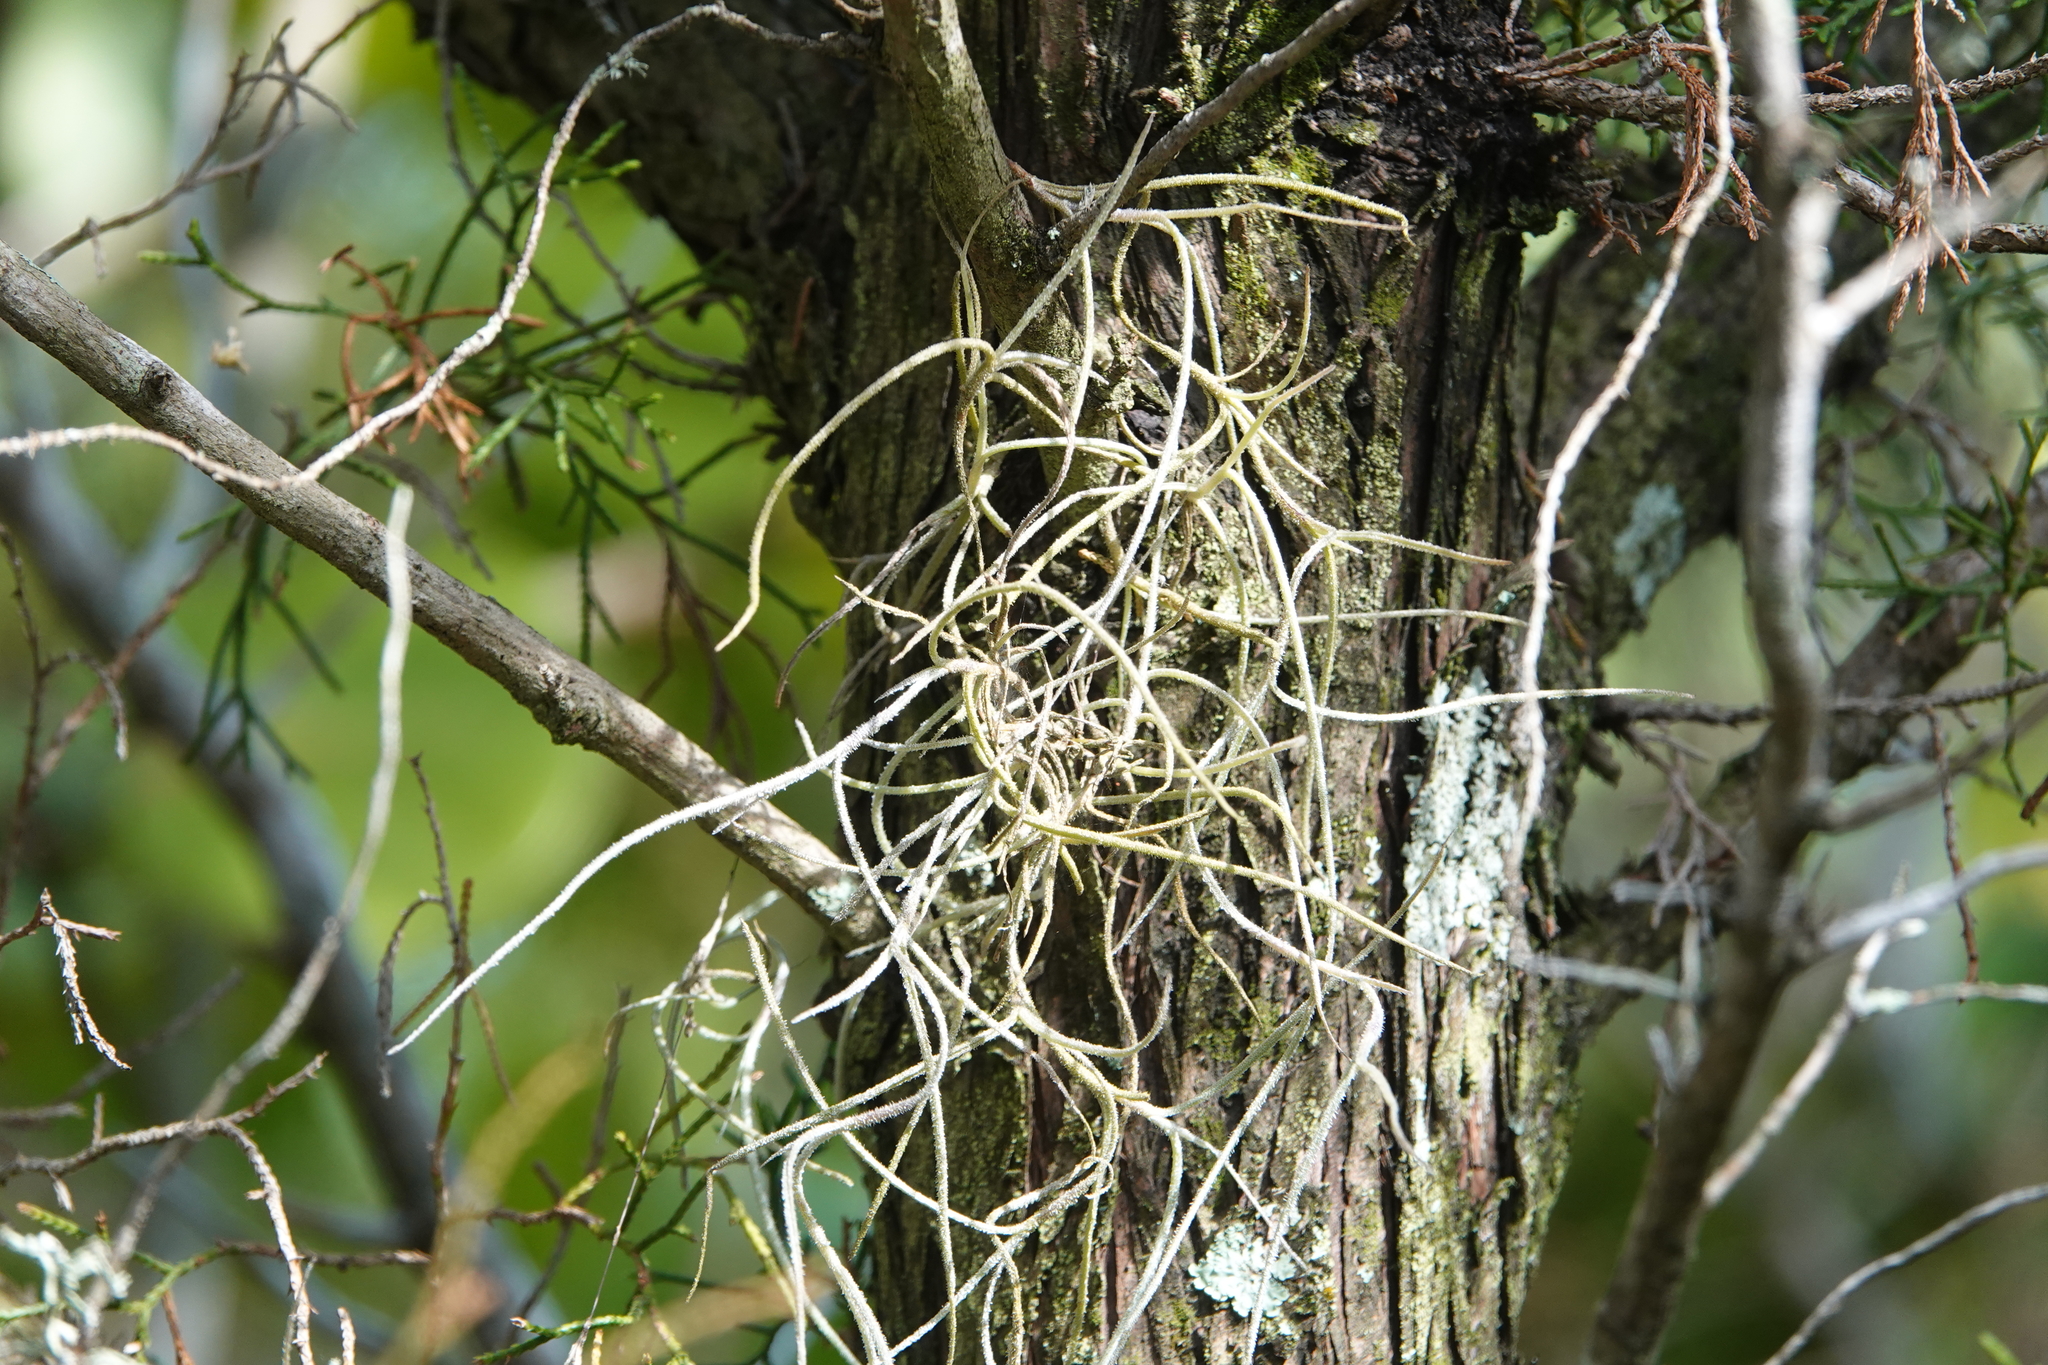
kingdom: Plantae
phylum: Tracheophyta
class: Liliopsida
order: Poales
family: Bromeliaceae
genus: Tillandsia
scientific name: Tillandsia usneoides
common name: Spanish moss
